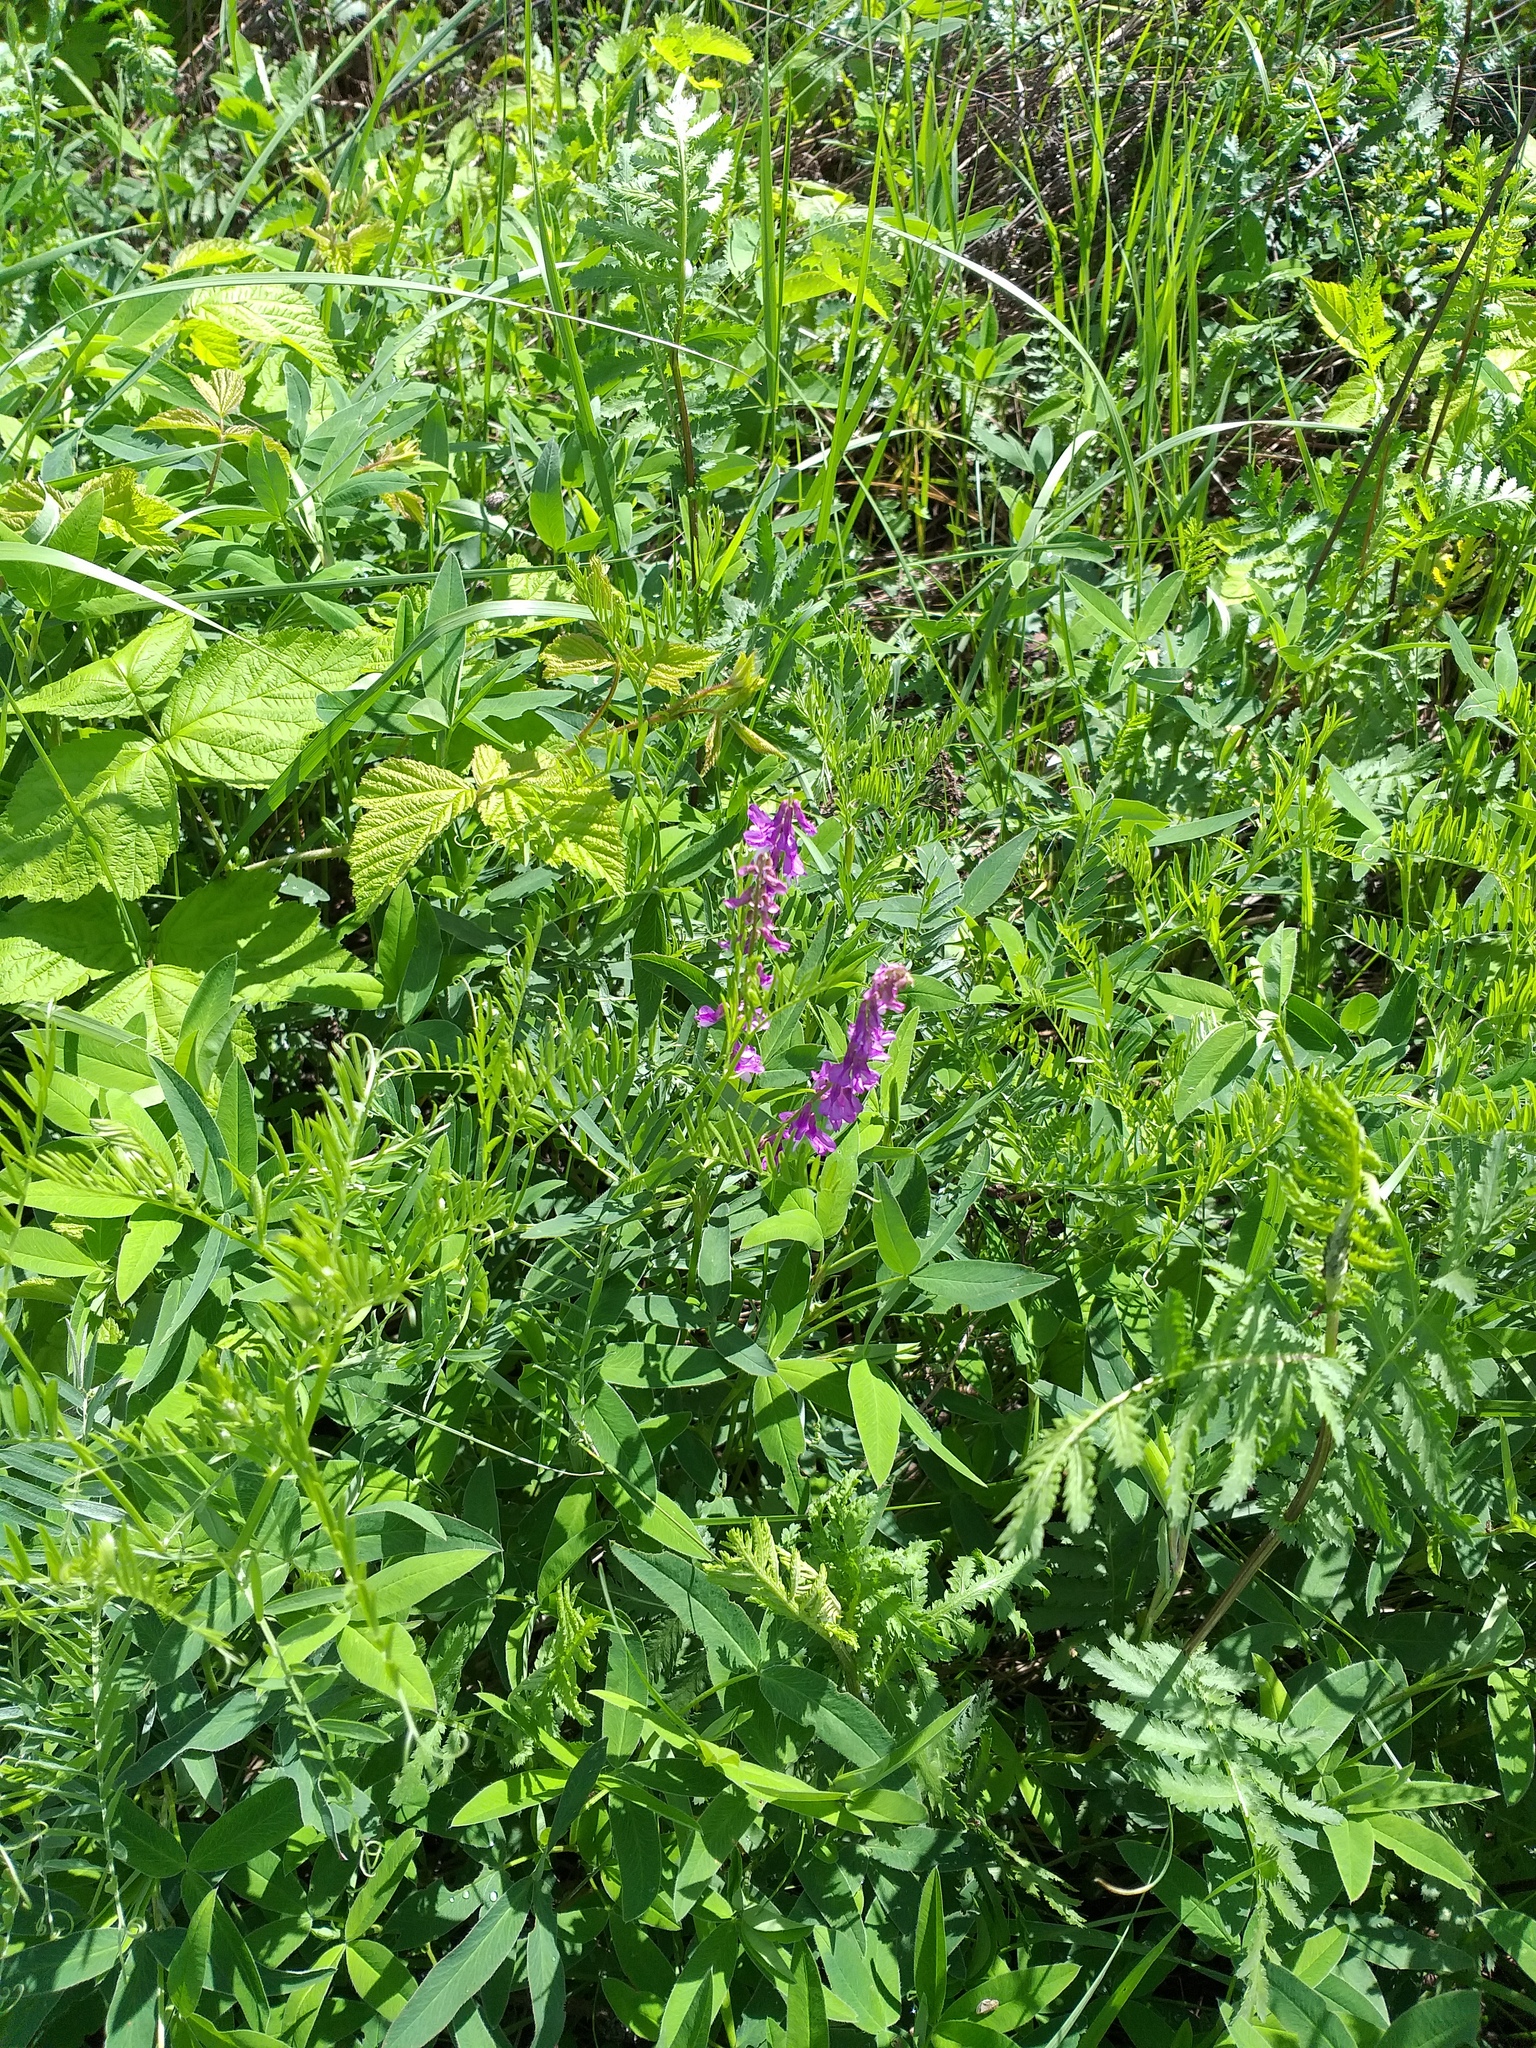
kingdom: Plantae
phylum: Tracheophyta
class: Magnoliopsida
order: Fabales
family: Fabaceae
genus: Vicia
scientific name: Vicia tenuifolia
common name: Fine-leaved vetch
